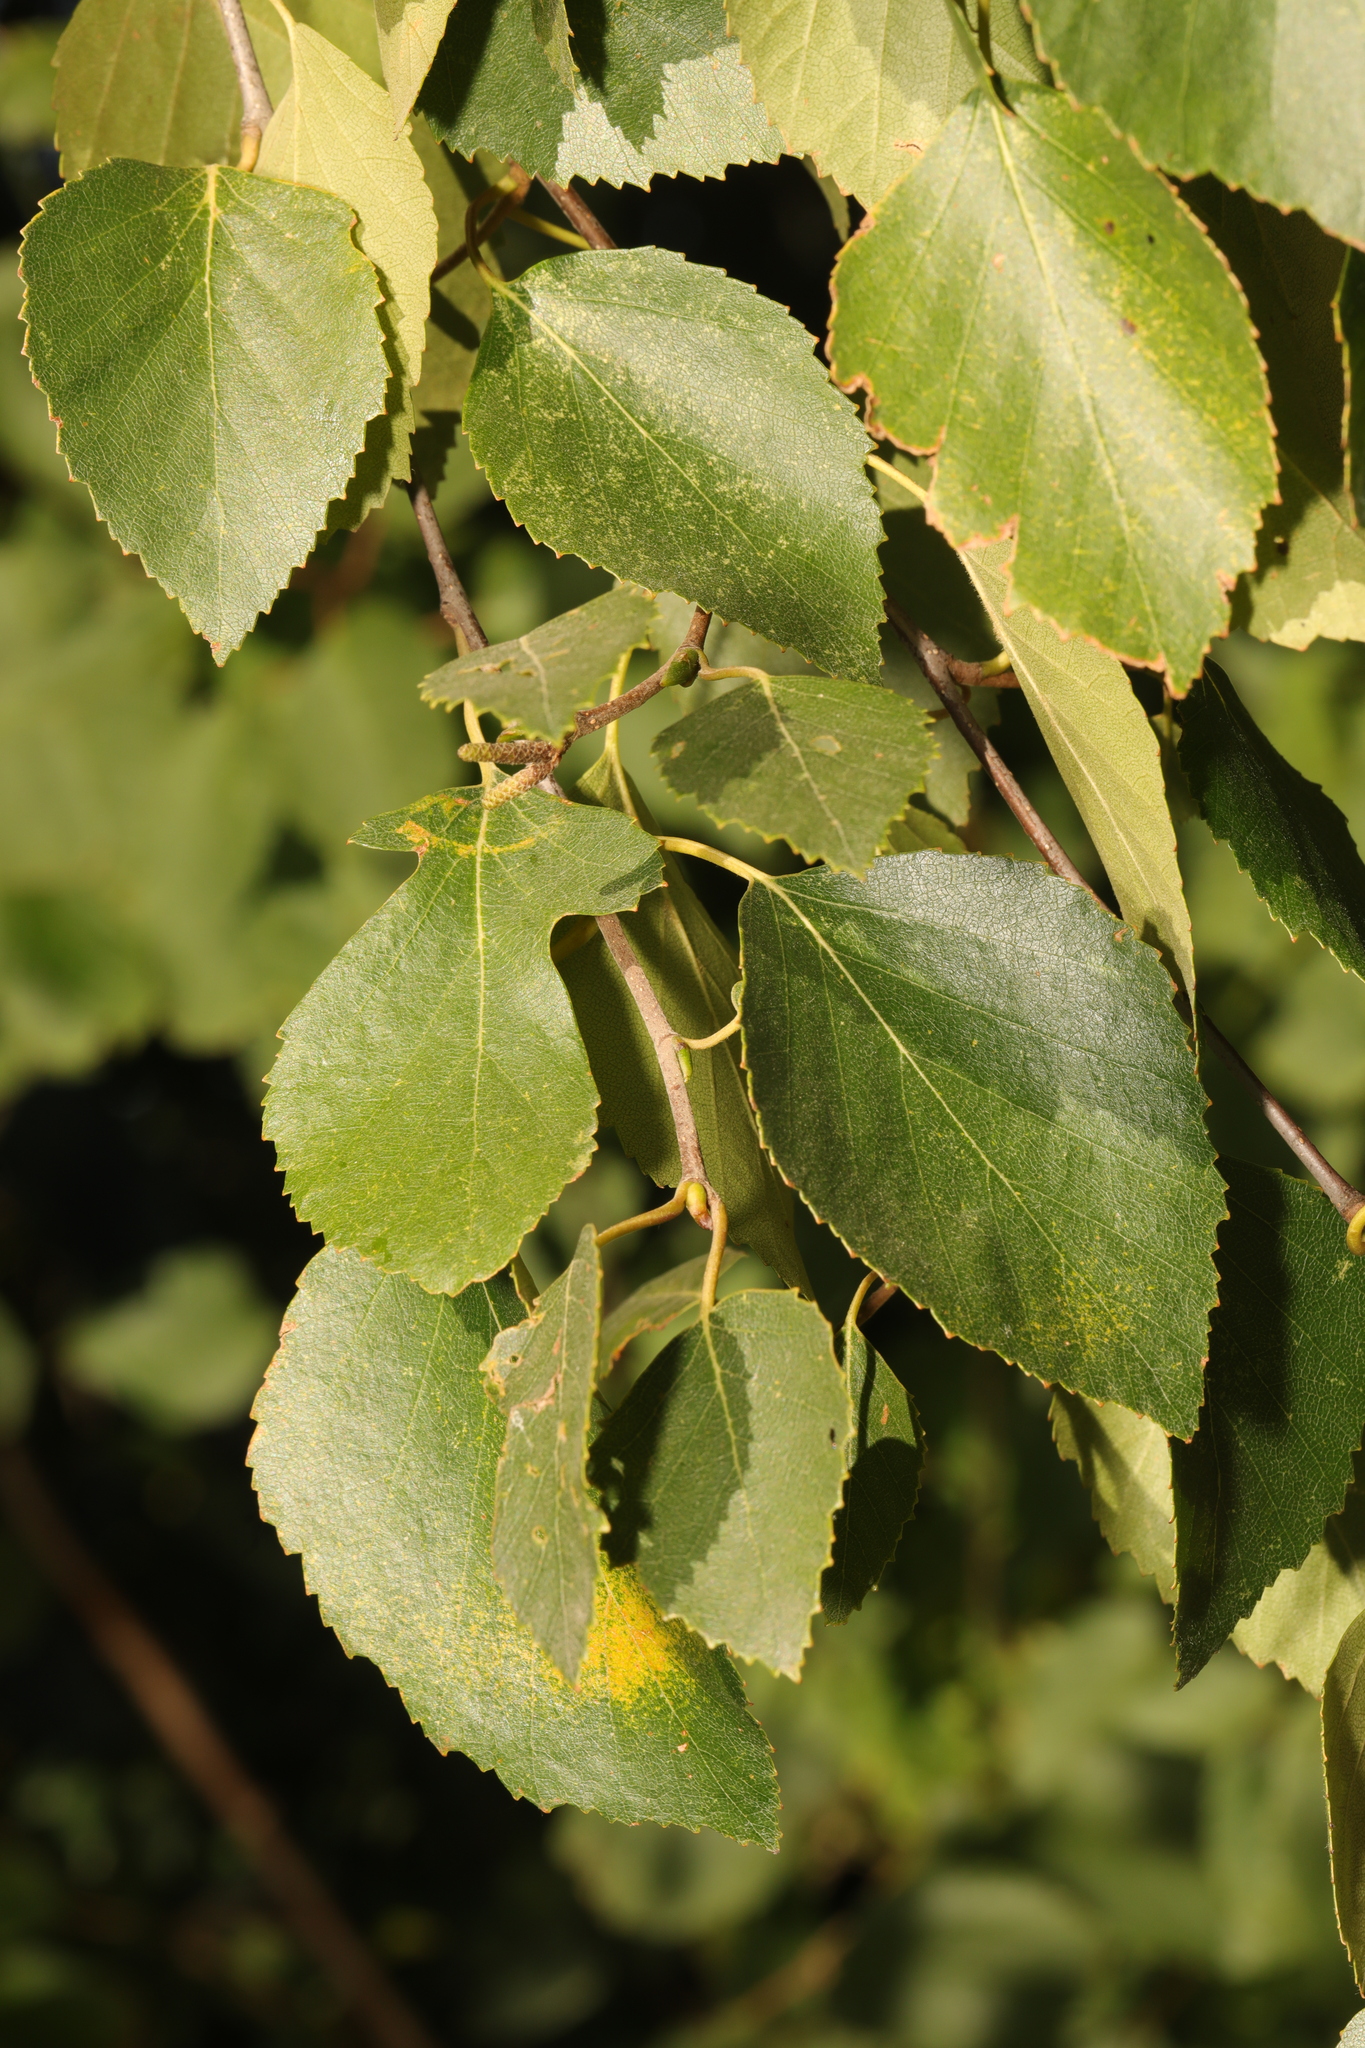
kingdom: Plantae
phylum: Tracheophyta
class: Magnoliopsida
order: Fagales
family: Betulaceae
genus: Betula
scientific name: Betula pubescens
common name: Downy birch
